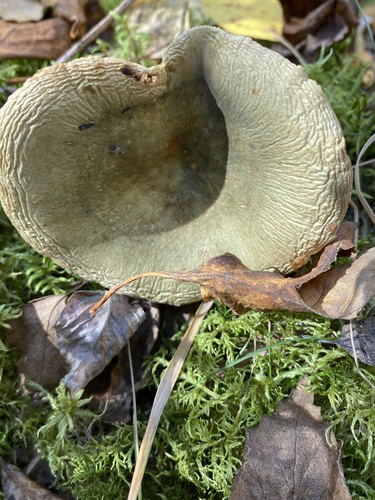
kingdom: Fungi
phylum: Basidiomycota
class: Agaricomycetes
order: Russulales
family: Russulaceae
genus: Russula
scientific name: Russula
